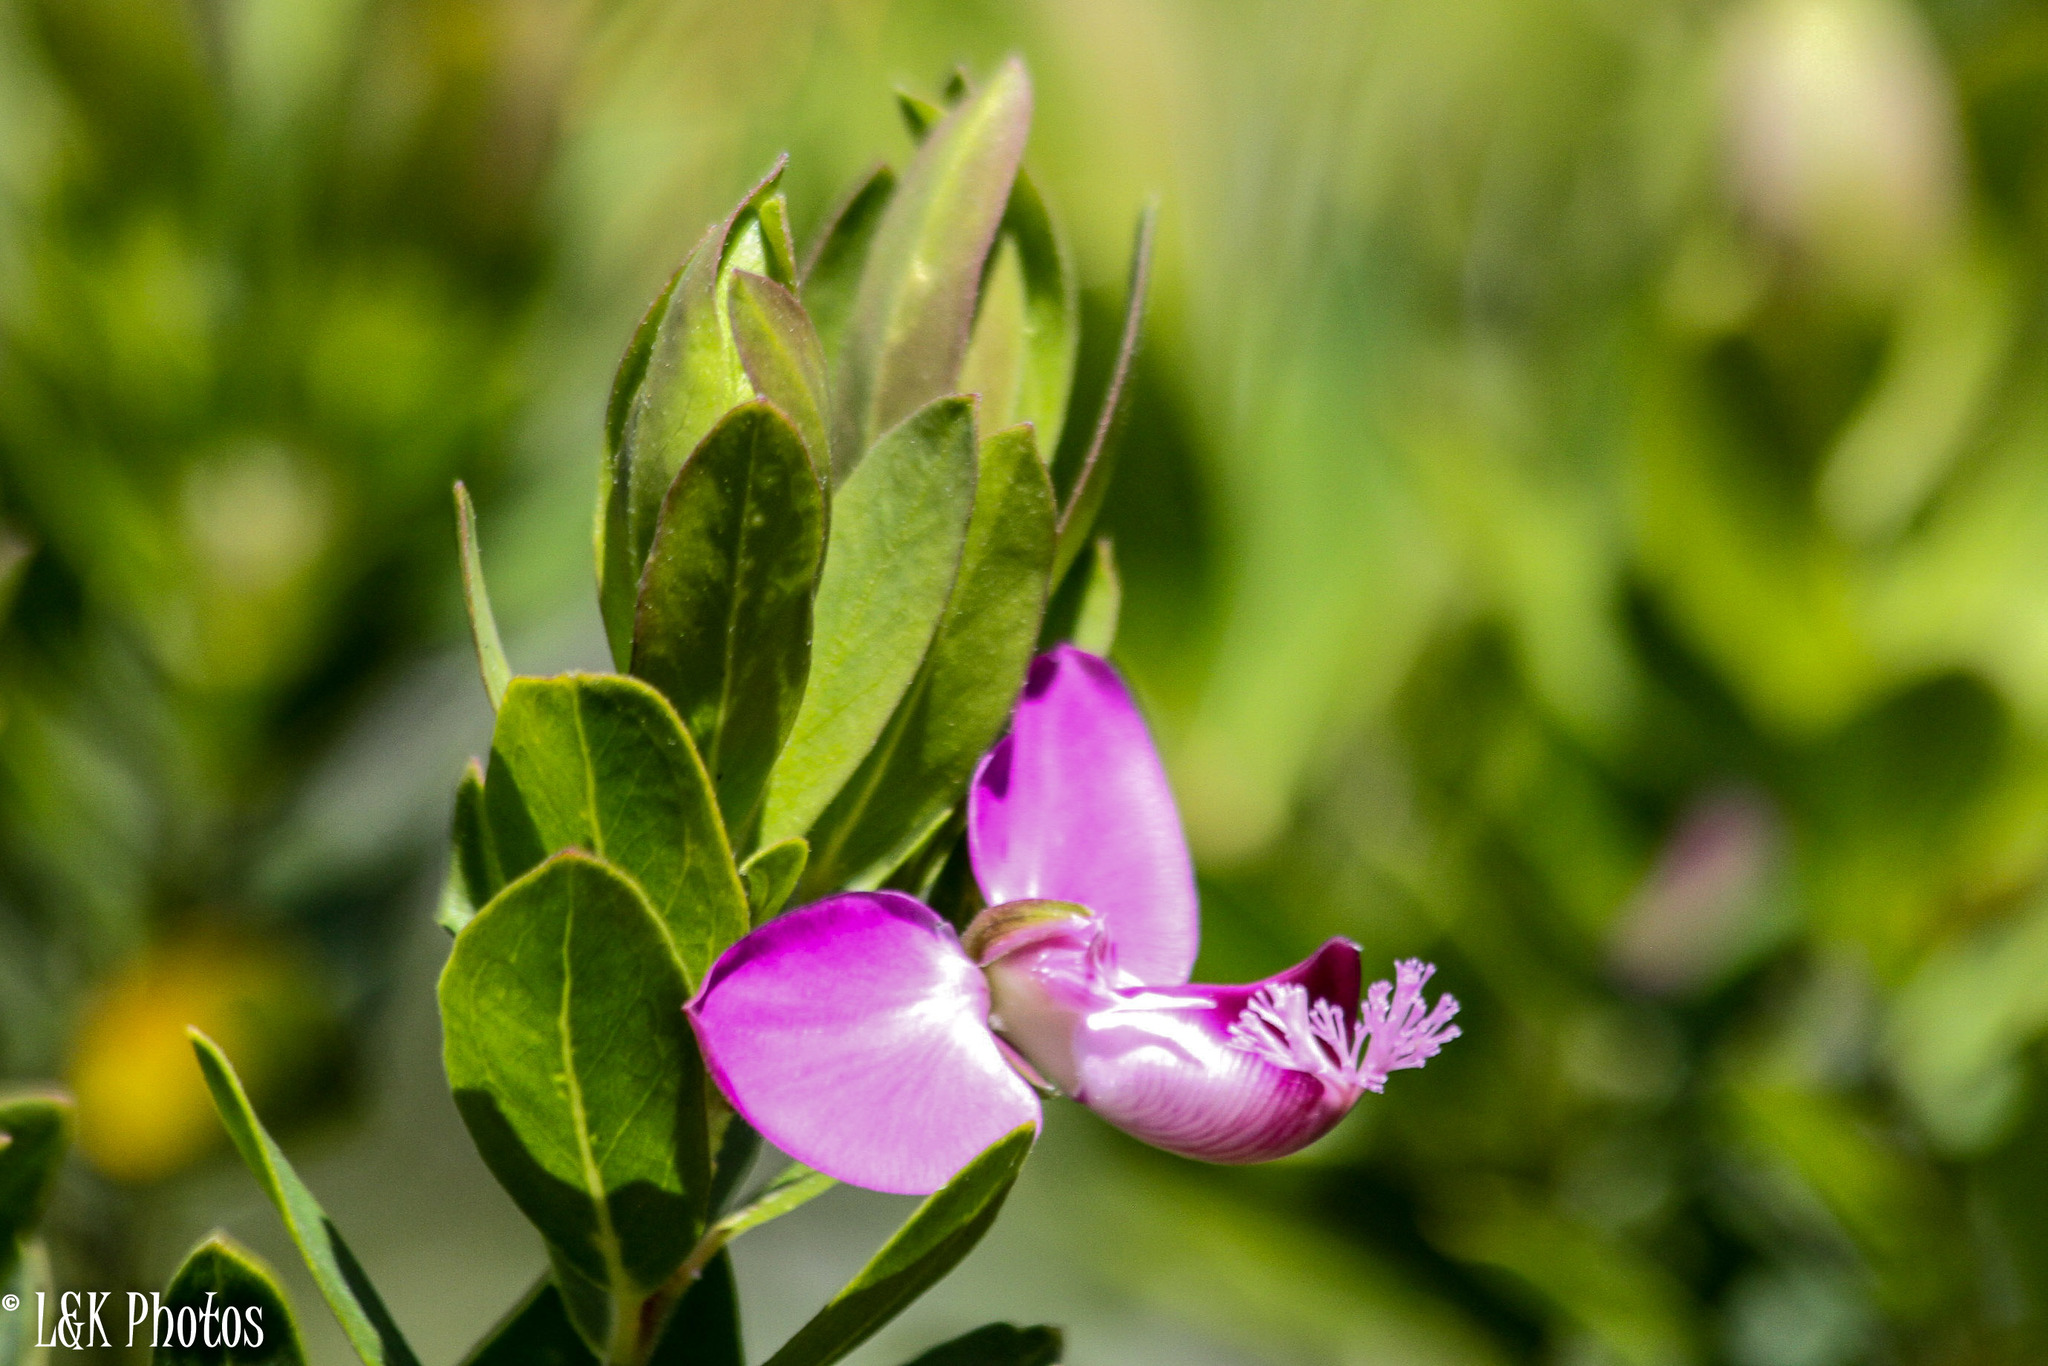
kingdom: Plantae
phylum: Tracheophyta
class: Magnoliopsida
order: Fabales
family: Polygalaceae
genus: Polygala
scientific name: Polygala myrtifolia
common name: Myrtle-leaf milkwort
